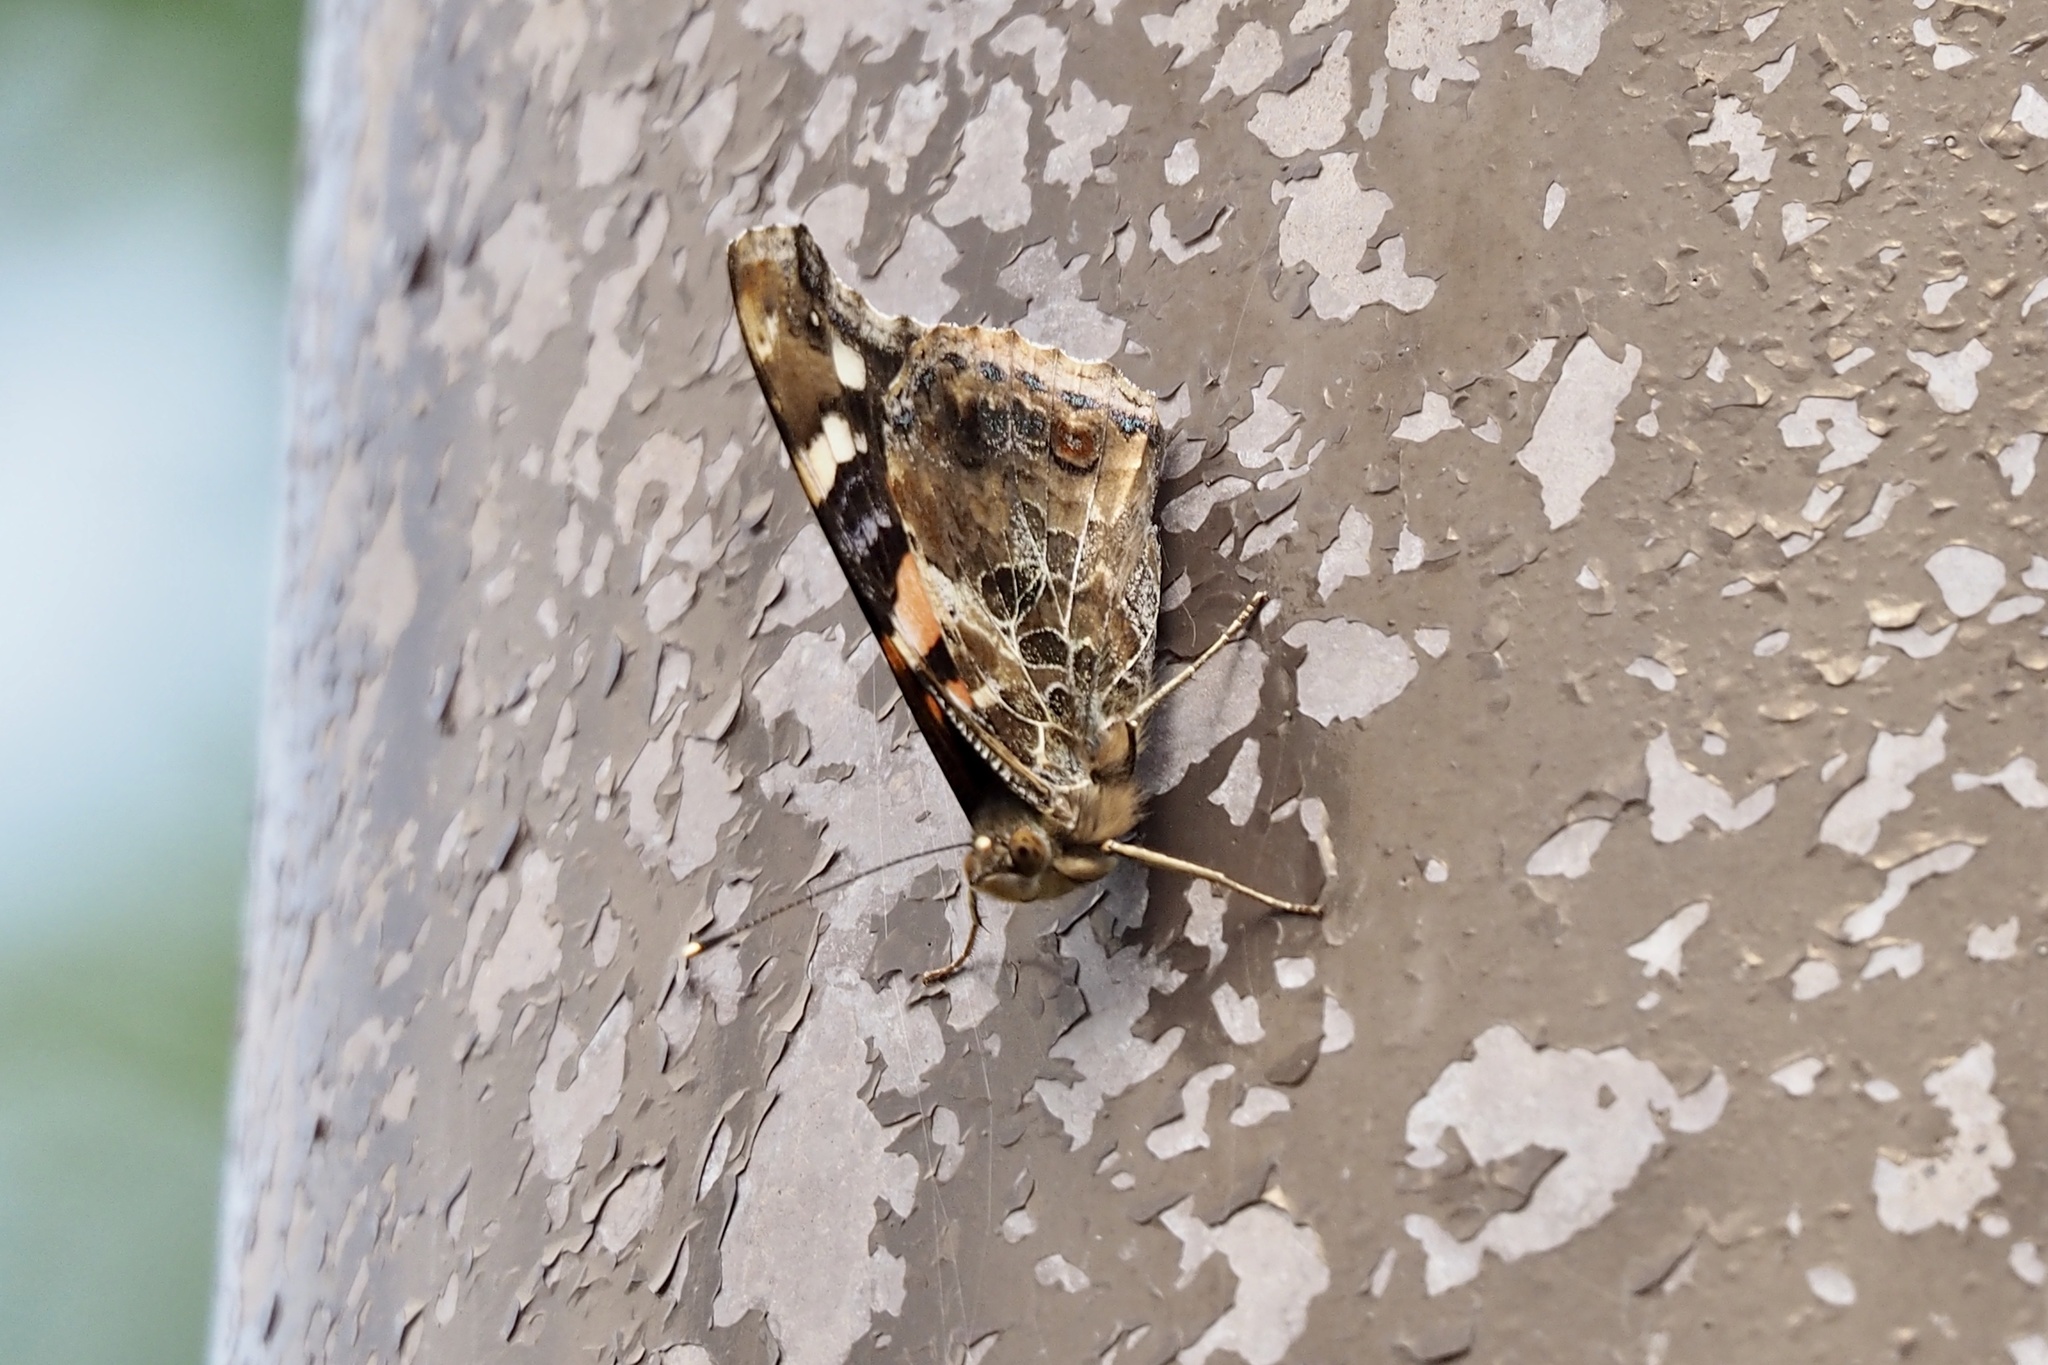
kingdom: Animalia
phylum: Arthropoda
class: Insecta
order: Lepidoptera
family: Nymphalidae
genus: Vanessa
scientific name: Vanessa indica
